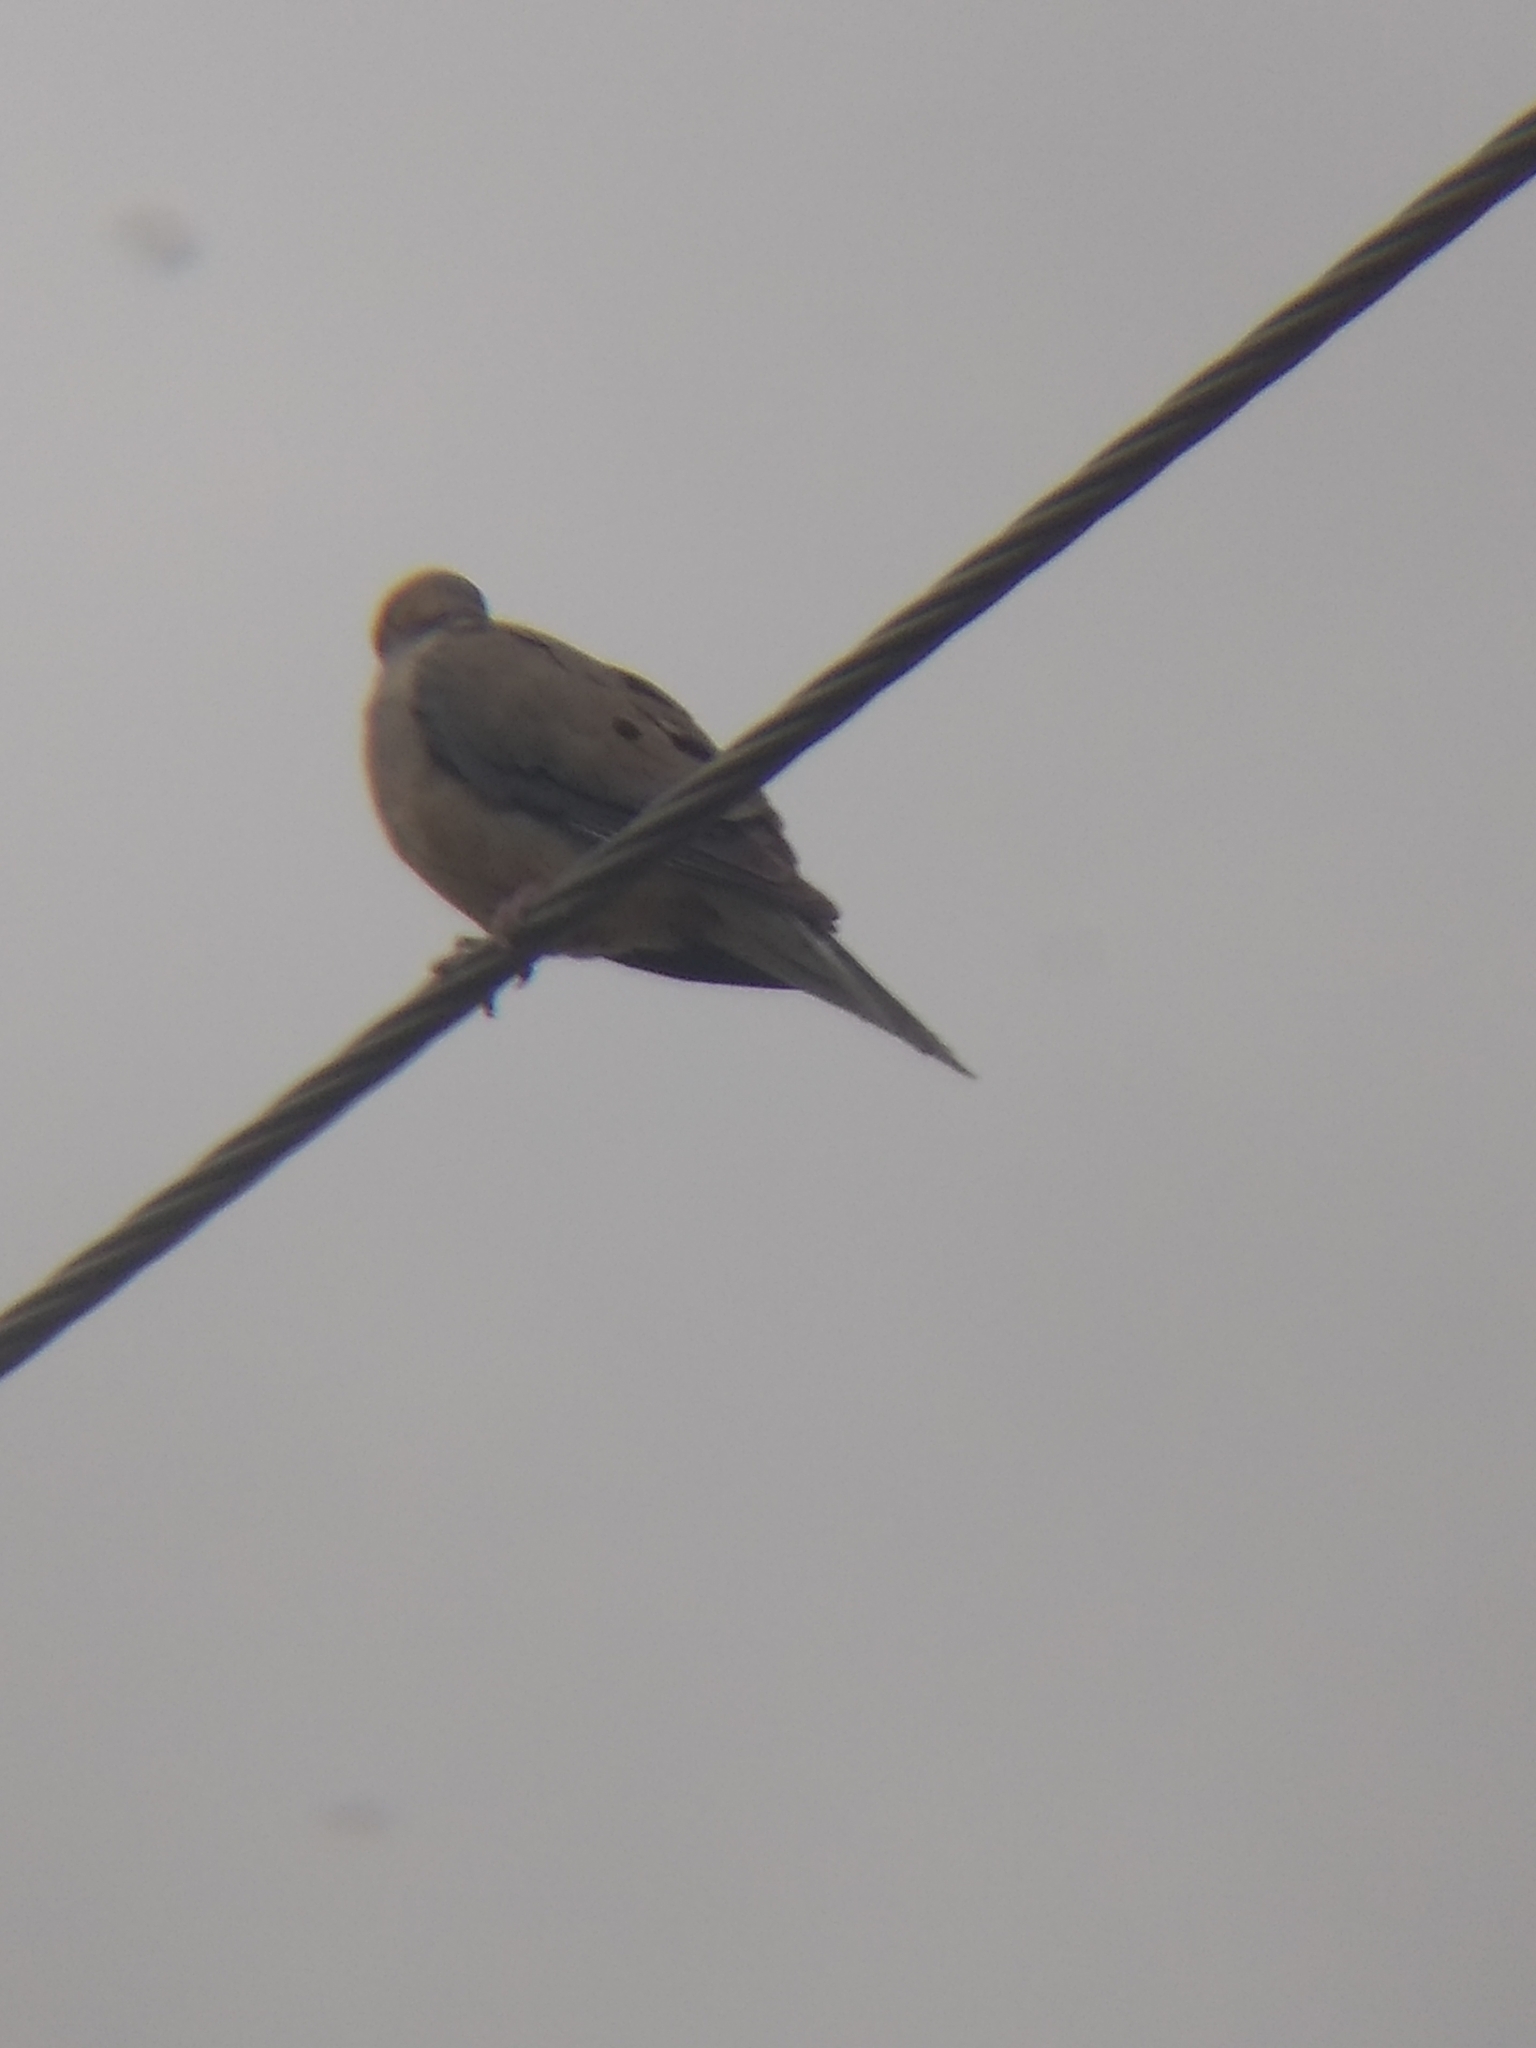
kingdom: Animalia
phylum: Chordata
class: Aves
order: Columbiformes
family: Columbidae
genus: Zenaida
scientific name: Zenaida macroura
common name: Mourning dove
